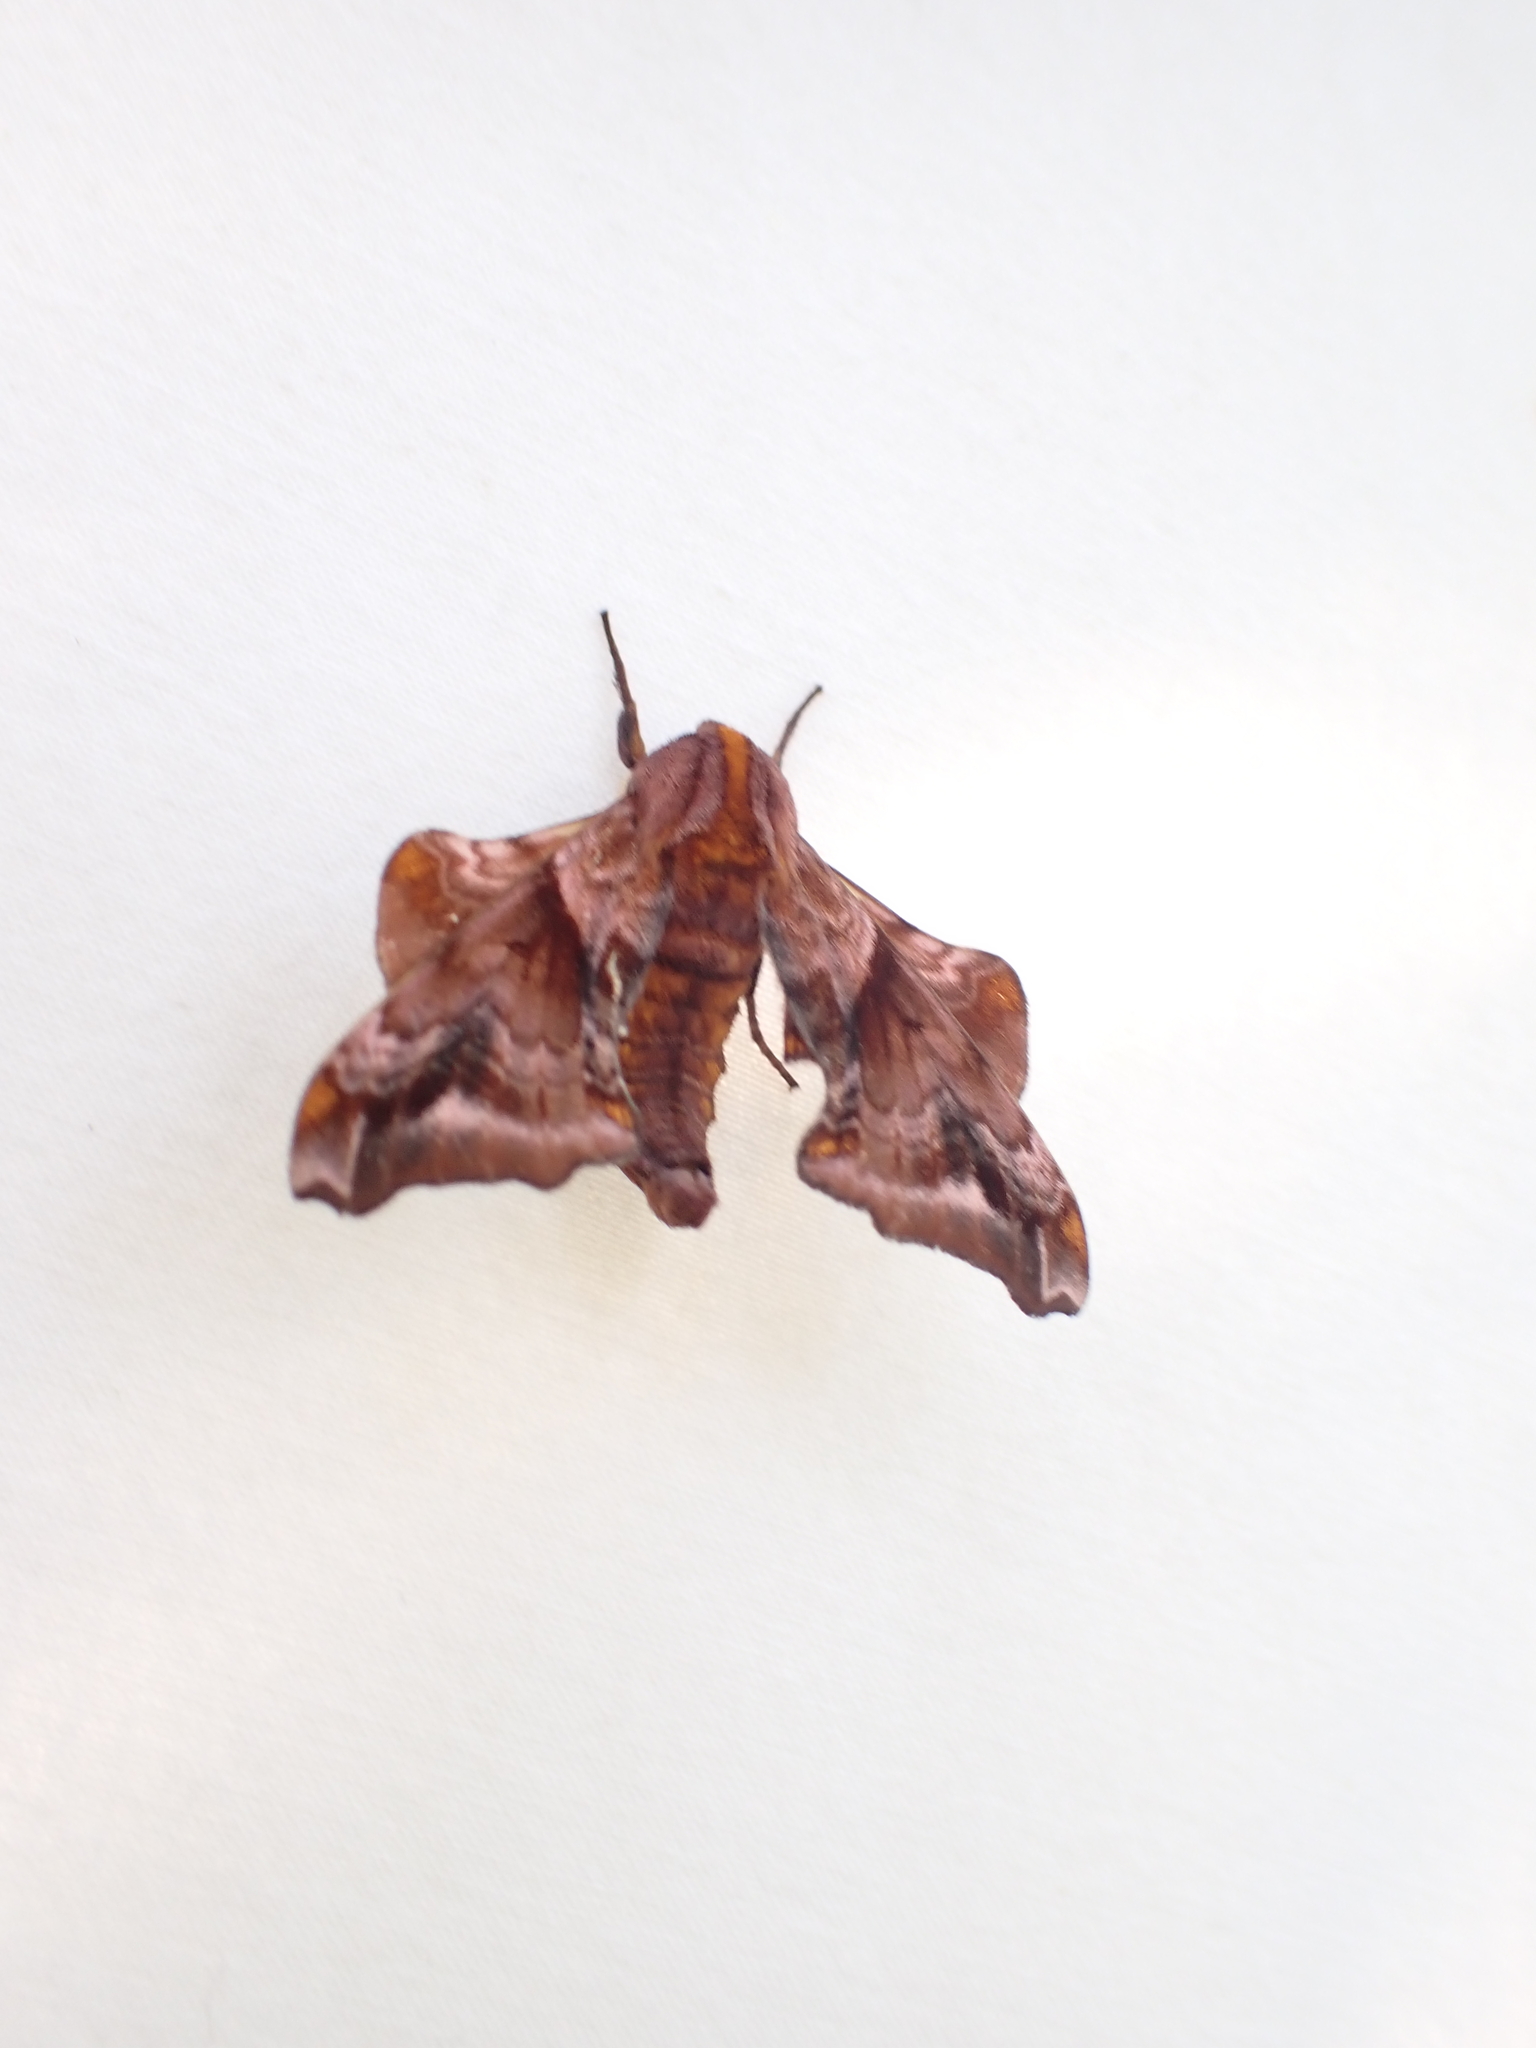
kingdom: Animalia
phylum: Arthropoda
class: Insecta
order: Lepidoptera
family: Sphingidae
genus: Paonias
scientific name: Paonias myops
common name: Small-eyed sphinx
